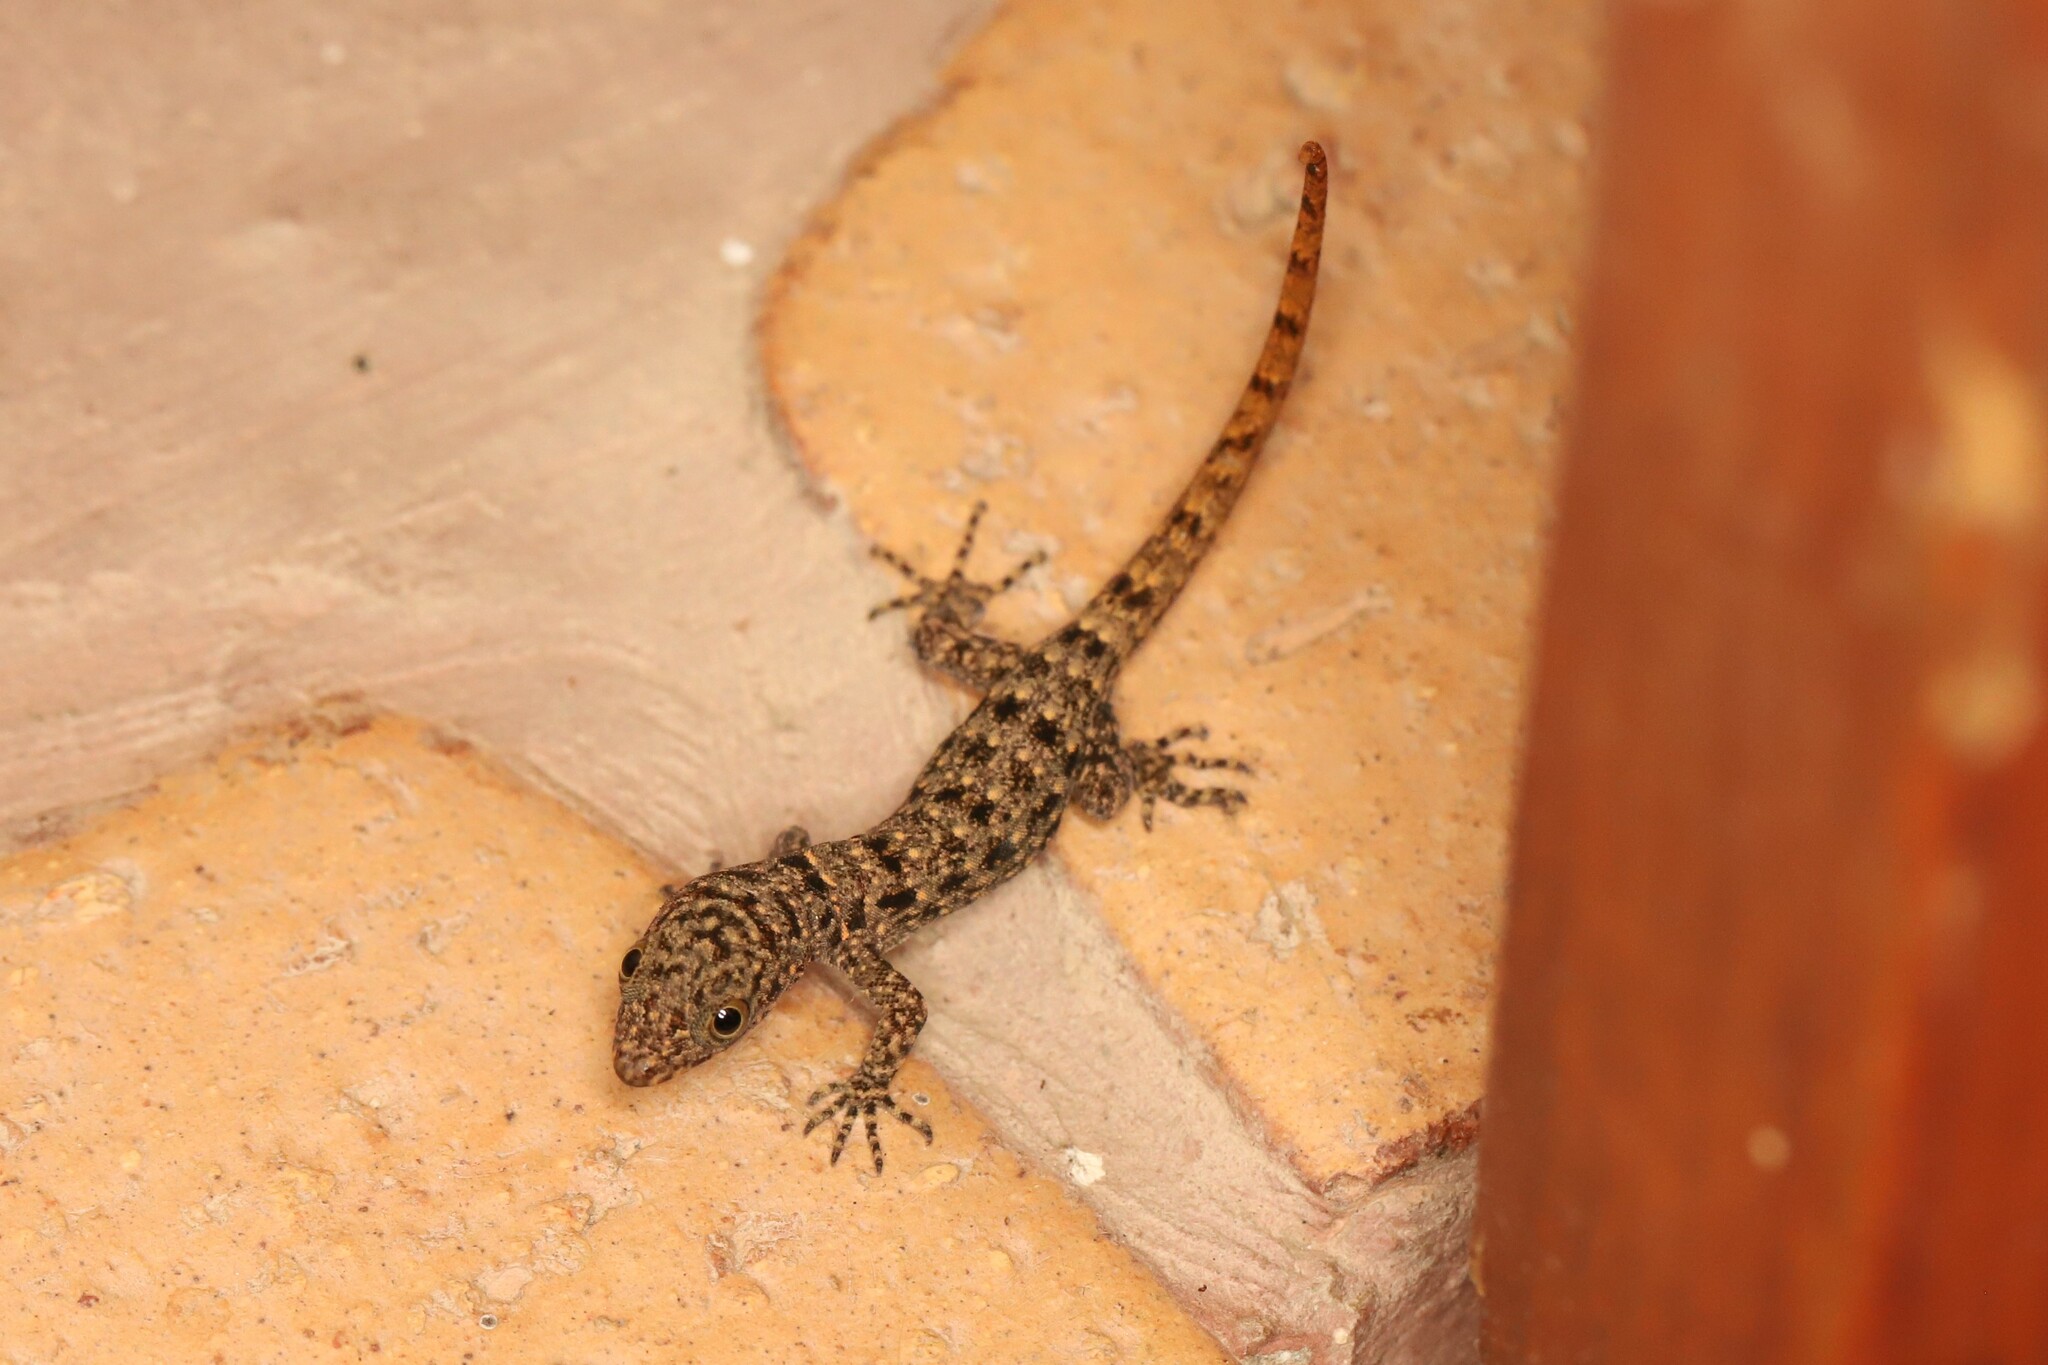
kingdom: Animalia
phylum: Chordata
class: Squamata
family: Sphaerodactylidae
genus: Gonatodes
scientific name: Gonatodes albogularis
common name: Yellow-headed gecko
